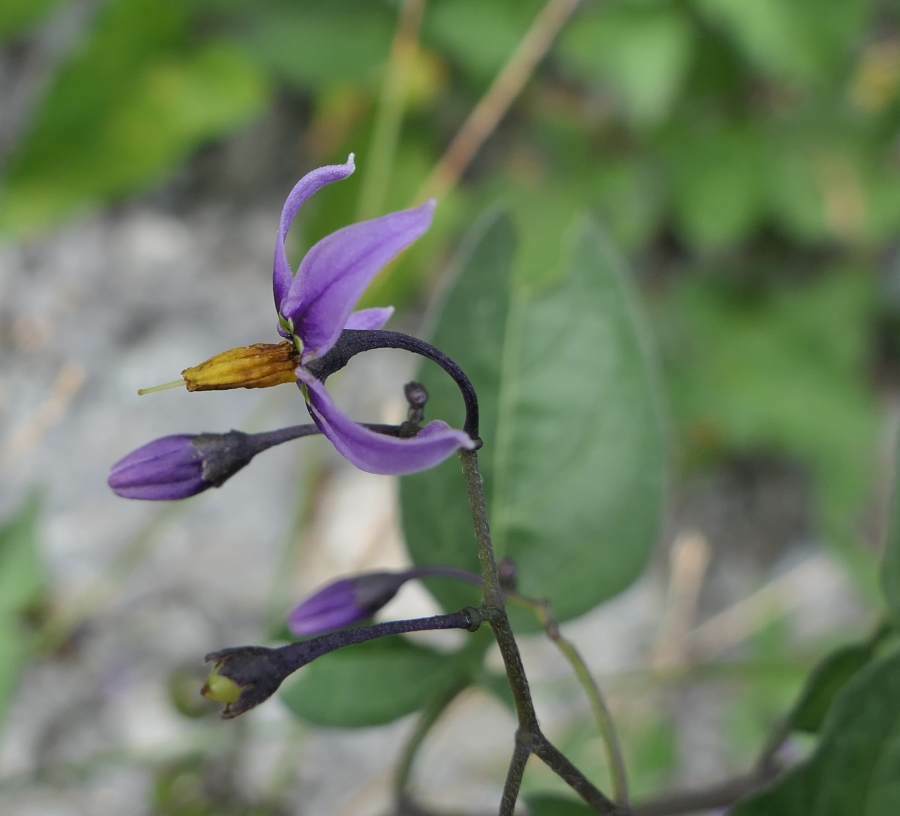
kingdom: Plantae
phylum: Tracheophyta
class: Magnoliopsida
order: Solanales
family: Solanaceae
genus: Solanum
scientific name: Solanum dulcamara
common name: Climbing nightshade
